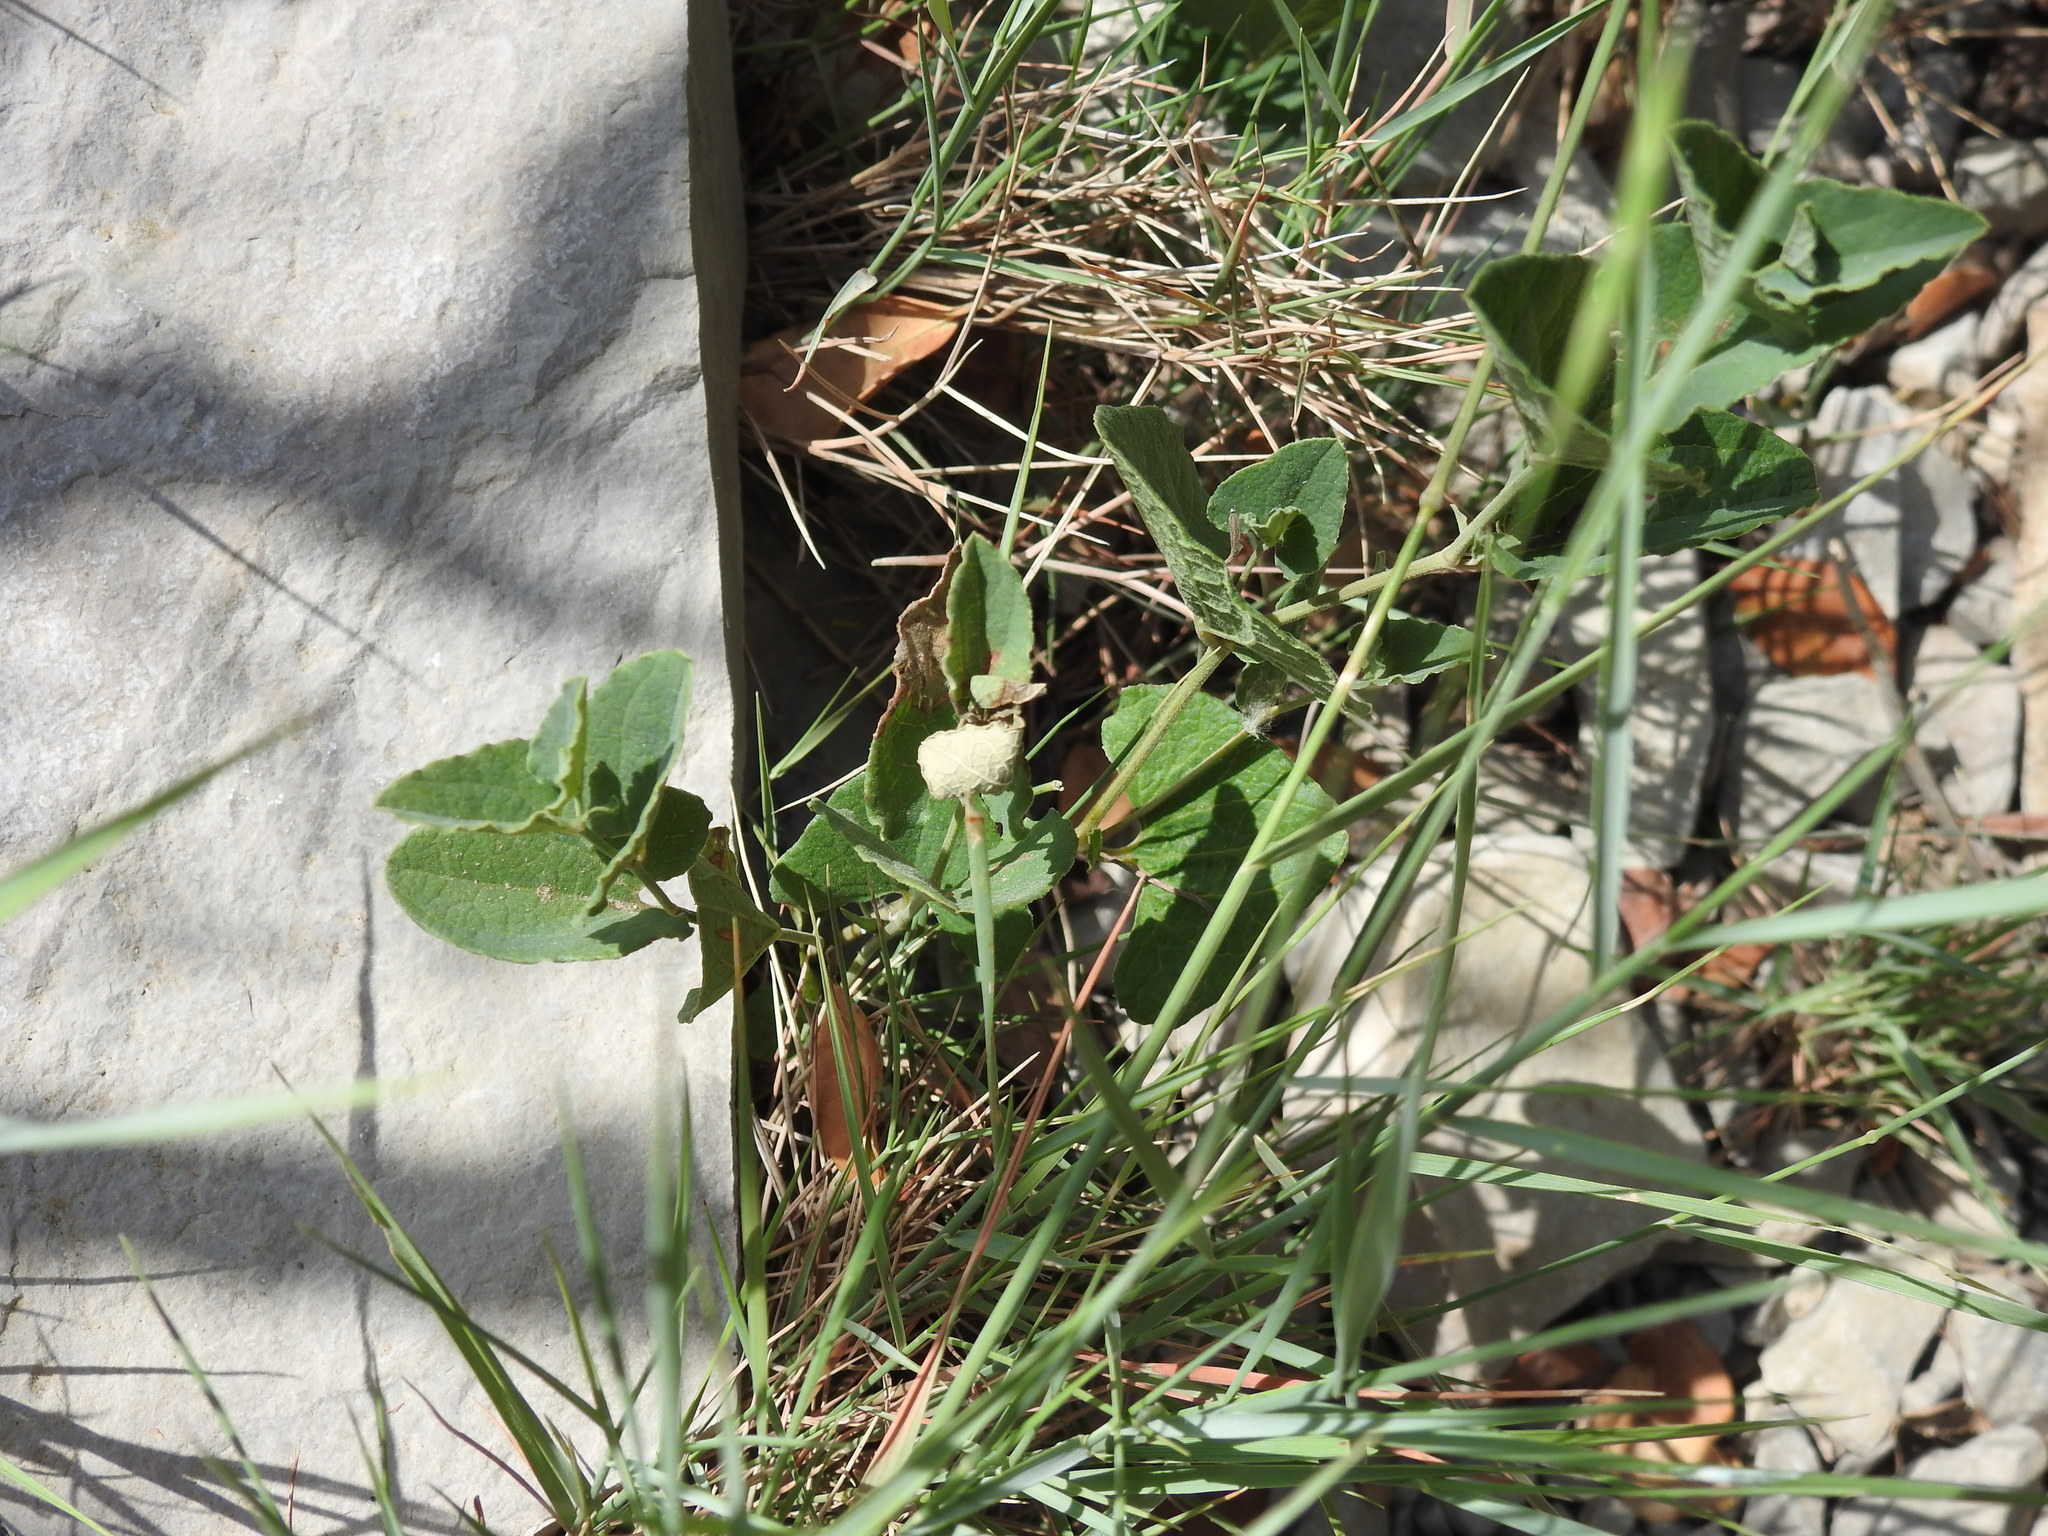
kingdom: Plantae
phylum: Tracheophyta
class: Magnoliopsida
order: Piperales
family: Aristolochiaceae
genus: Aristolochia
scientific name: Aristolochia pistolochia
